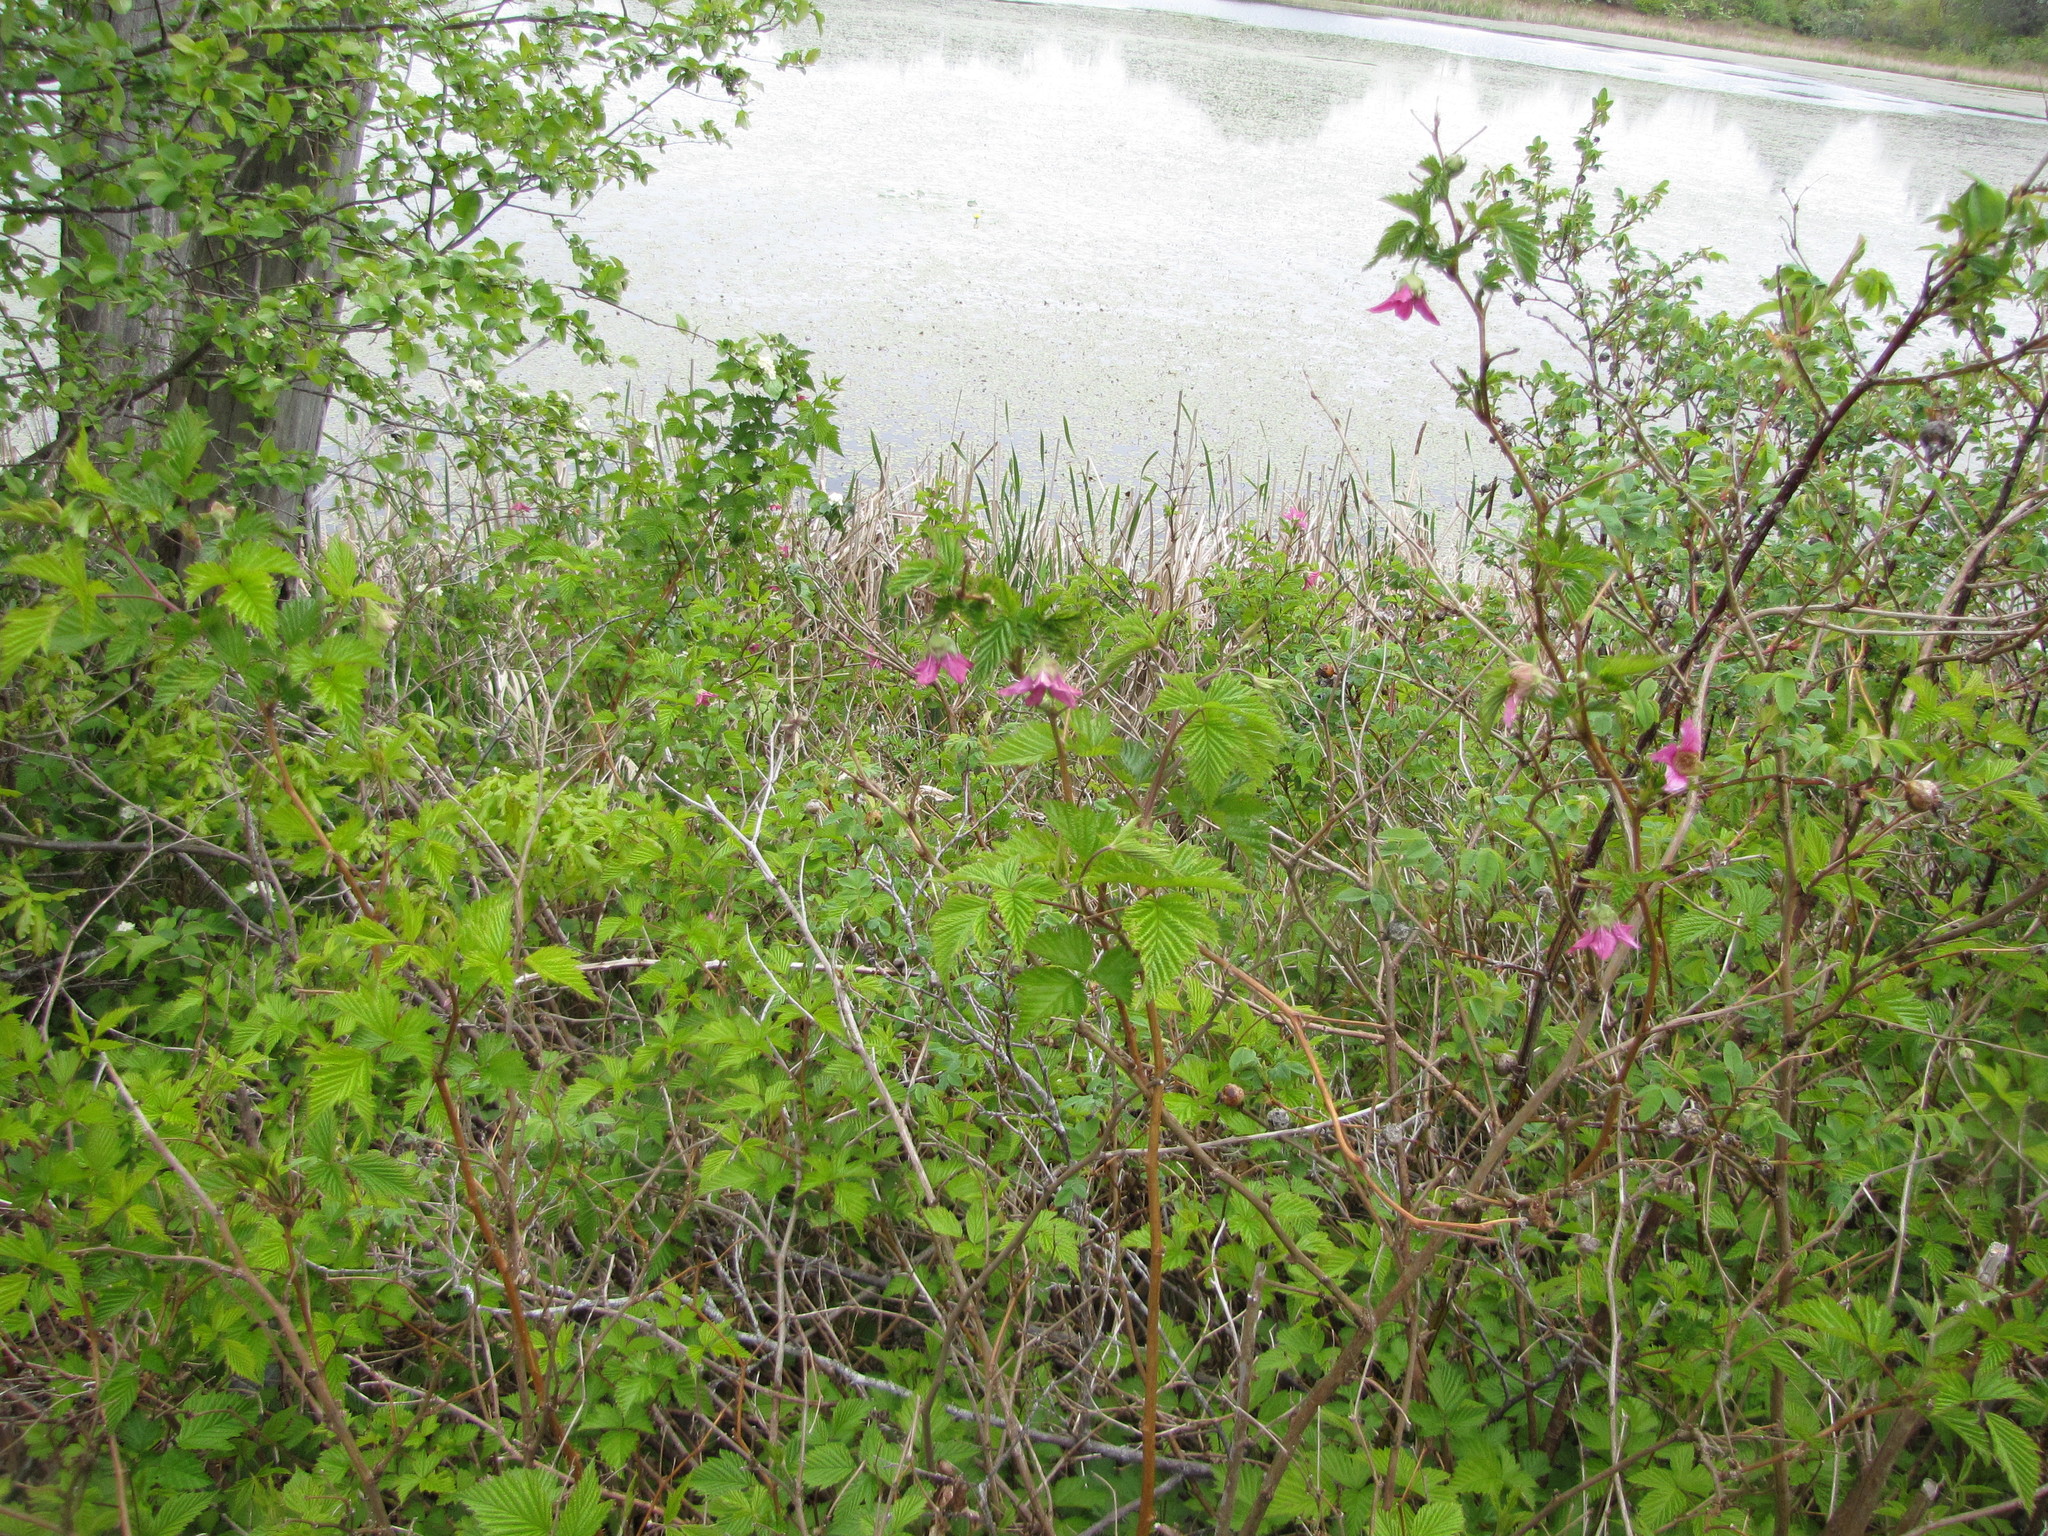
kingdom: Plantae
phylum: Tracheophyta
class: Magnoliopsida
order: Rosales
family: Rosaceae
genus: Rubus
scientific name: Rubus spectabilis
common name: Salmonberry
